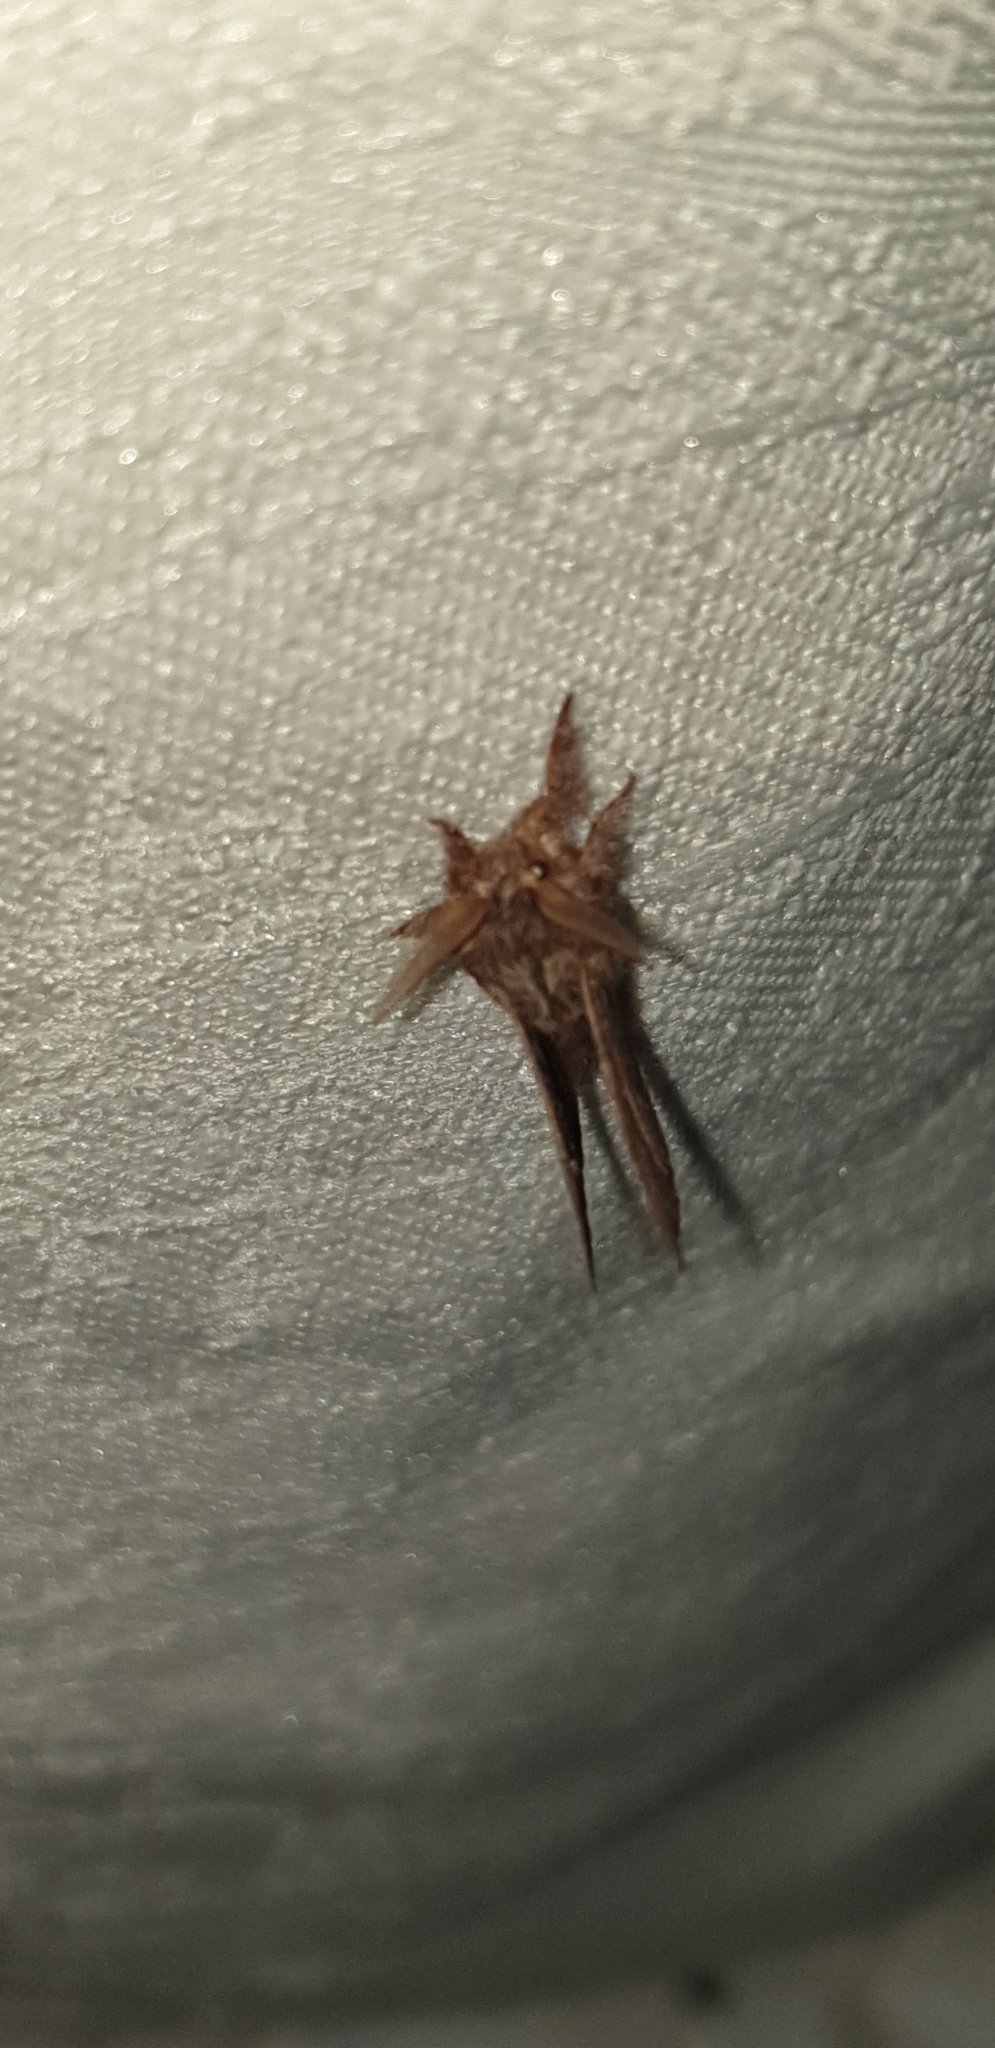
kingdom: Animalia
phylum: Arthropoda
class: Insecta
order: Lepidoptera
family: Lasiocampidae
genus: Pernattia
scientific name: Pernattia pusilla
